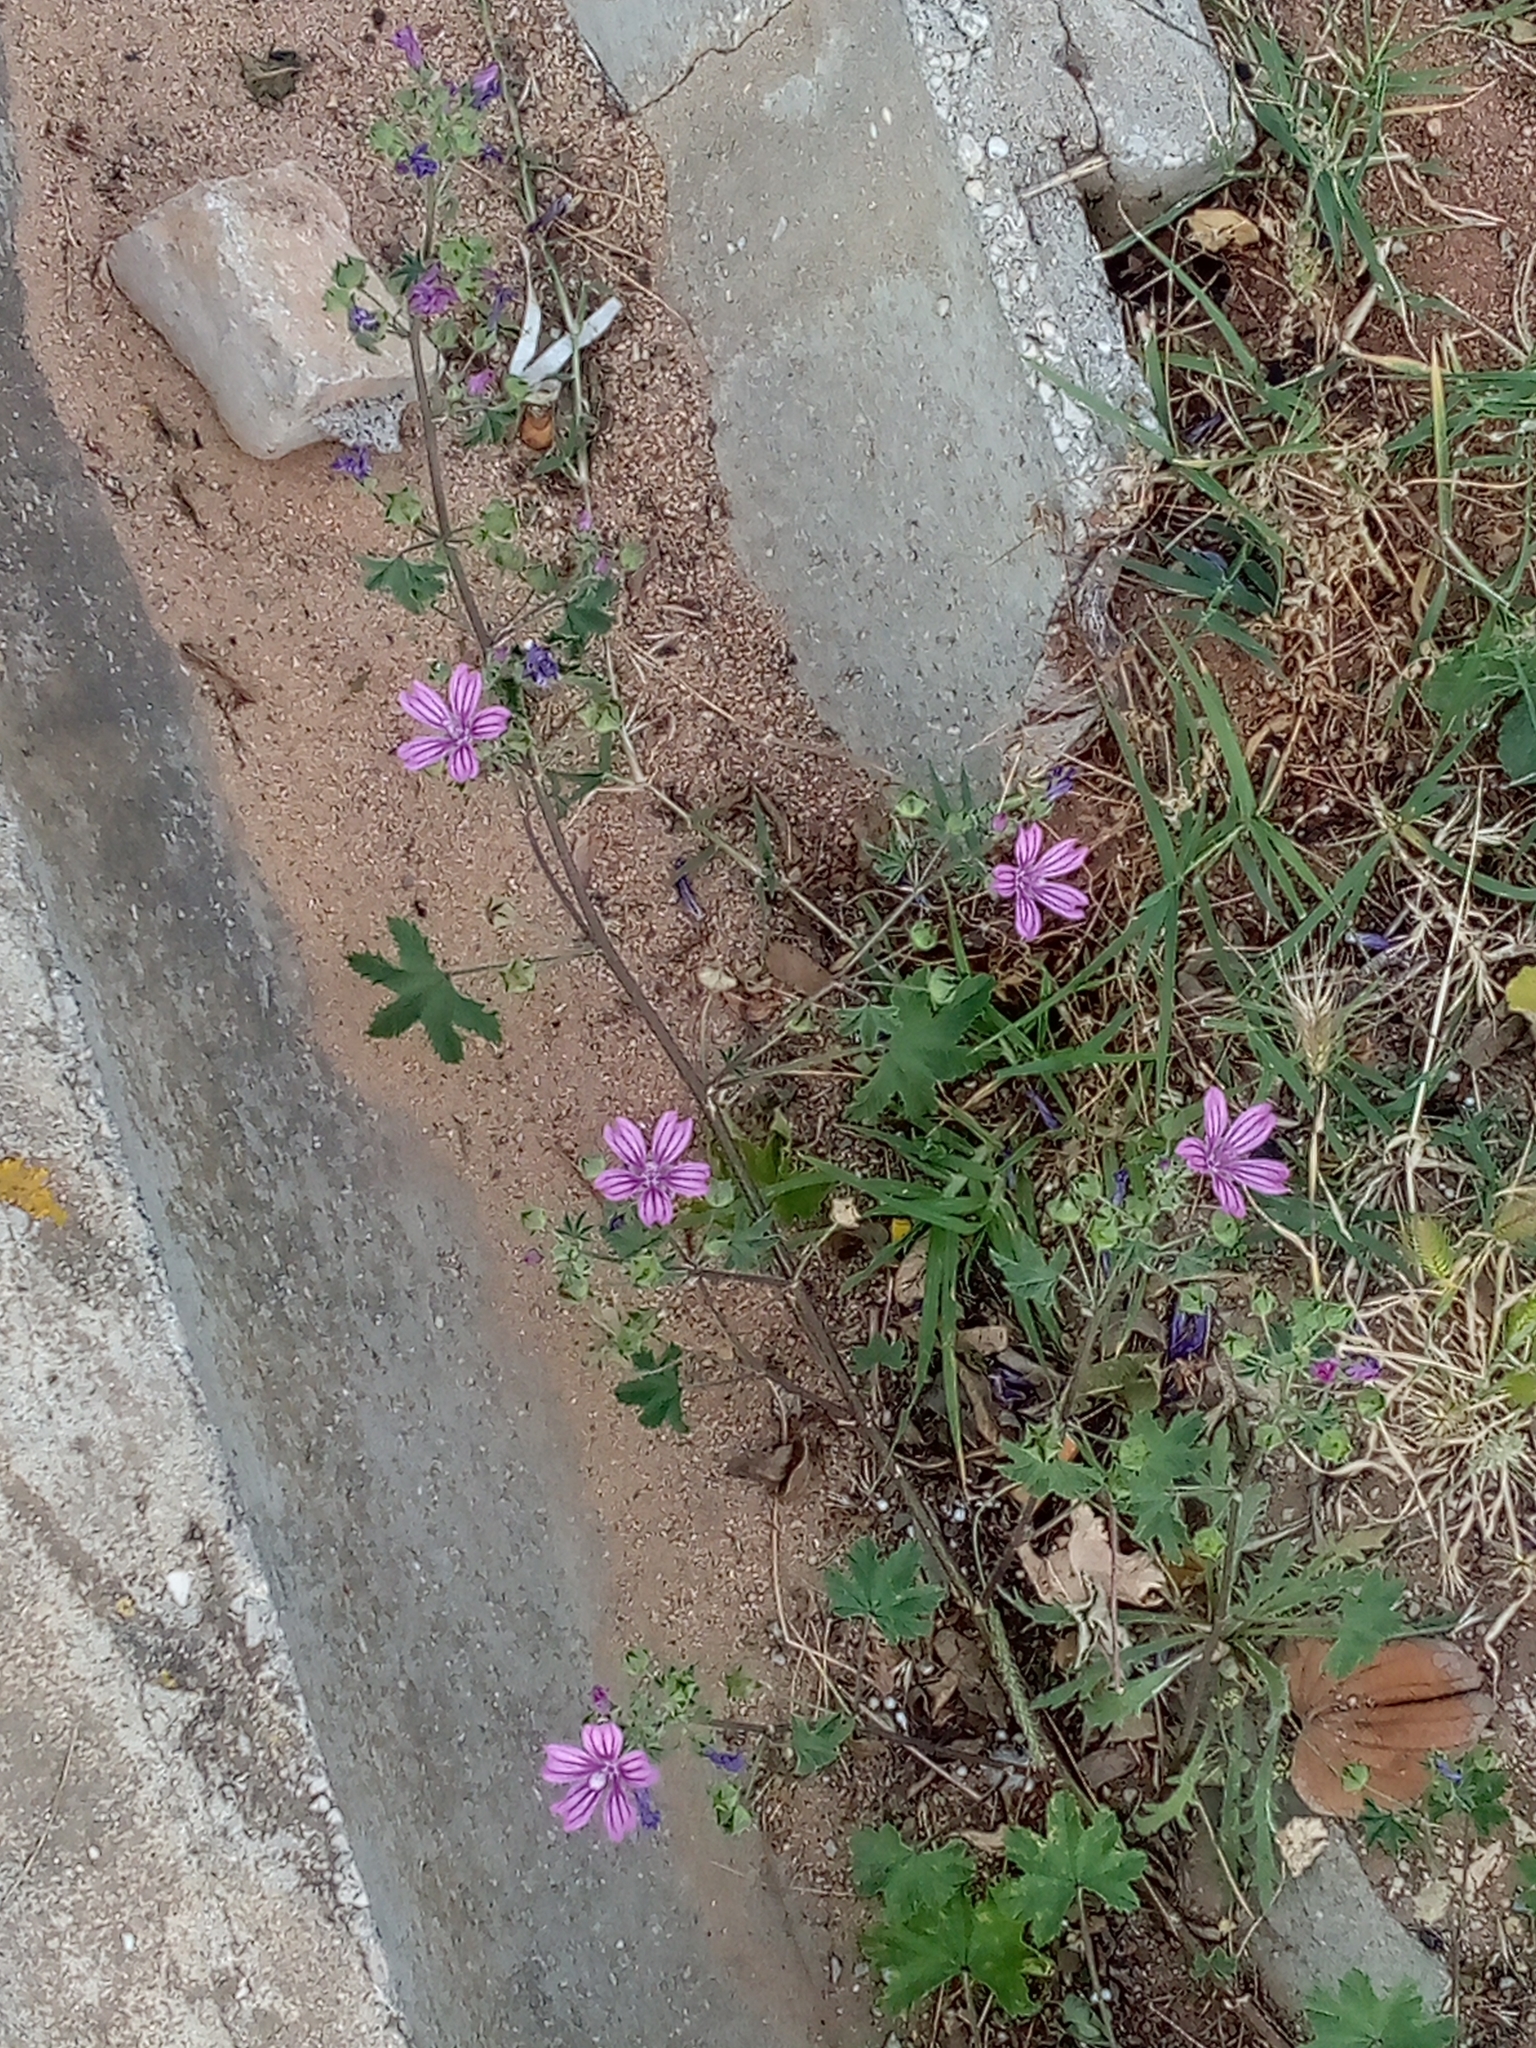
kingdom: Plantae
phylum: Tracheophyta
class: Magnoliopsida
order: Malvales
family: Malvaceae
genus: Malva
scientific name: Malva sylvestris
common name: Common mallow
